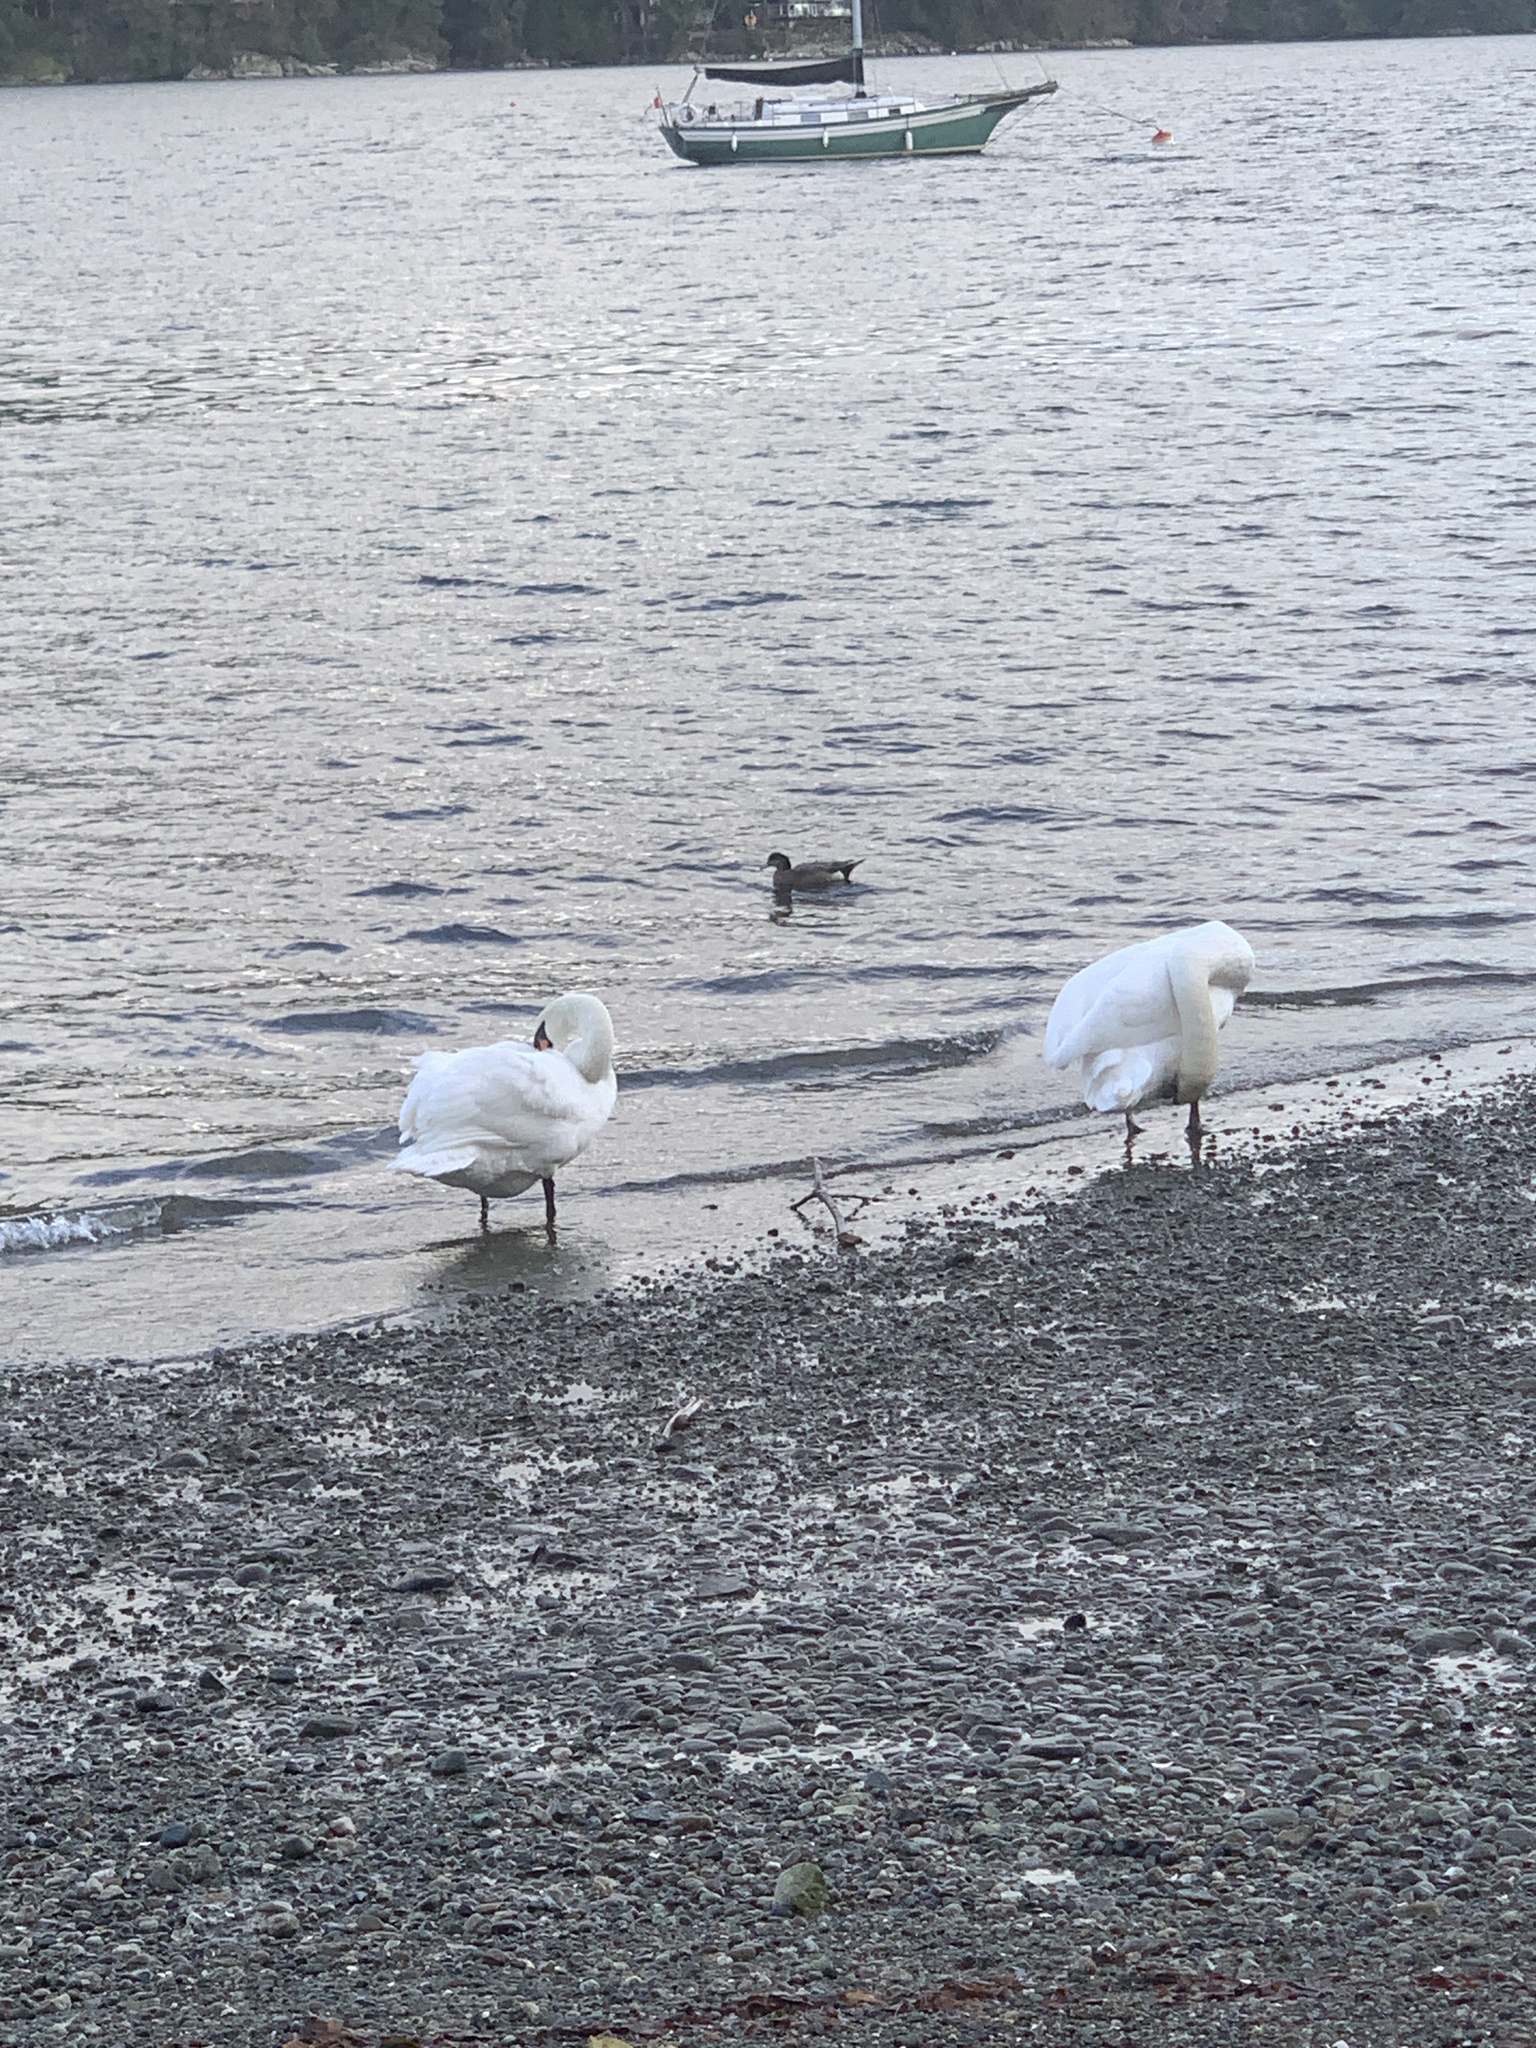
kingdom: Animalia
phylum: Chordata
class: Aves
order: Anseriformes
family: Anatidae
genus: Cygnus
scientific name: Cygnus olor
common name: Mute swan
